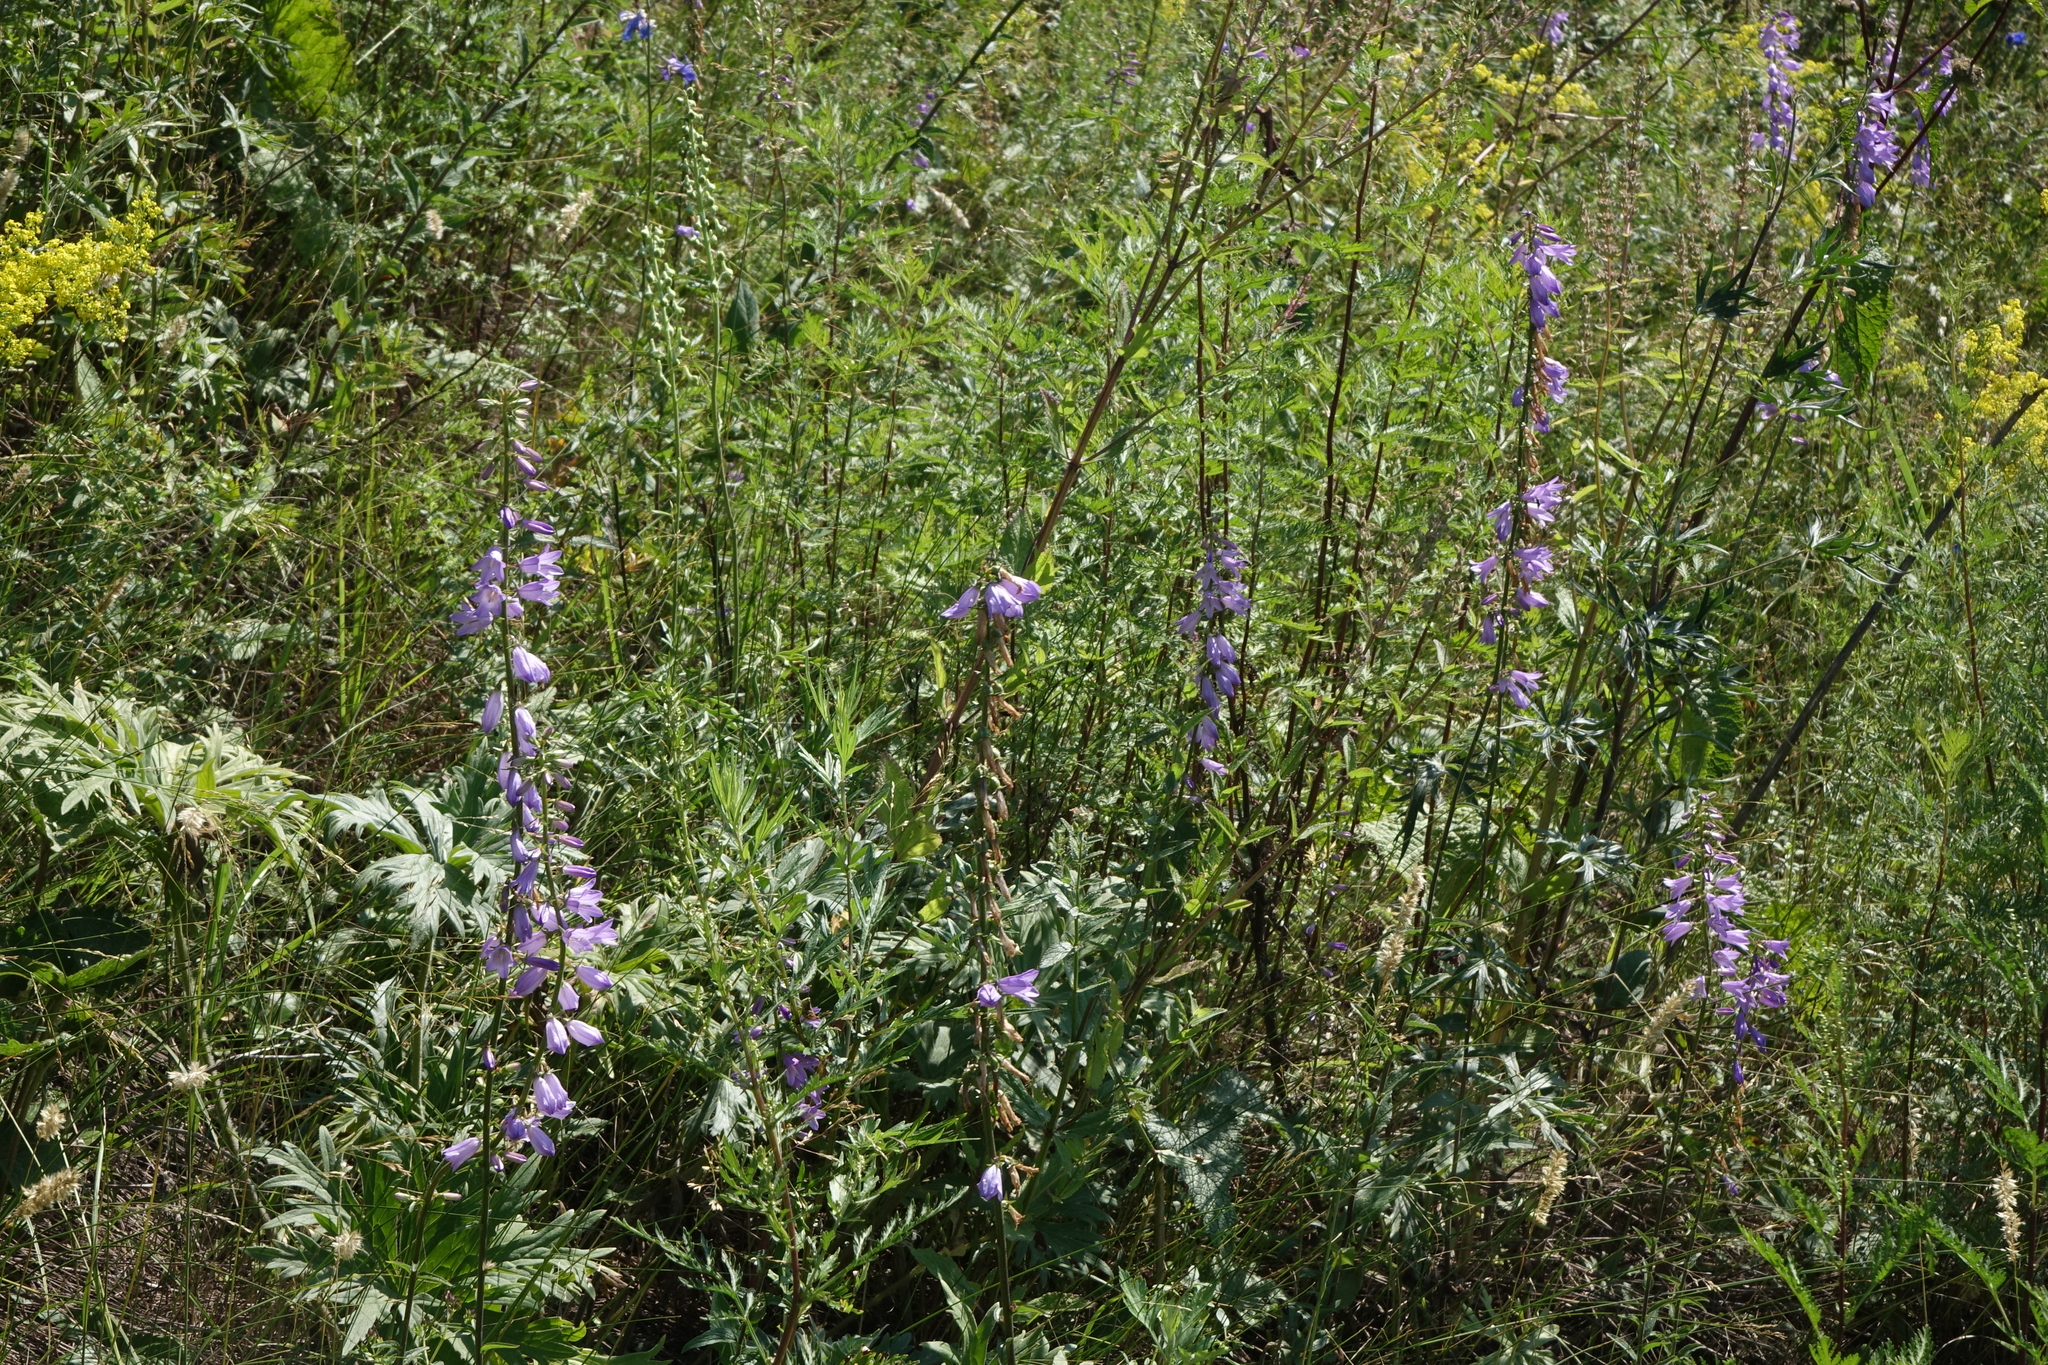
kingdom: Plantae
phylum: Tracheophyta
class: Magnoliopsida
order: Asterales
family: Campanulaceae
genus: Campanula
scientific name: Campanula rapunculoides
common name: Creeping bellflower
